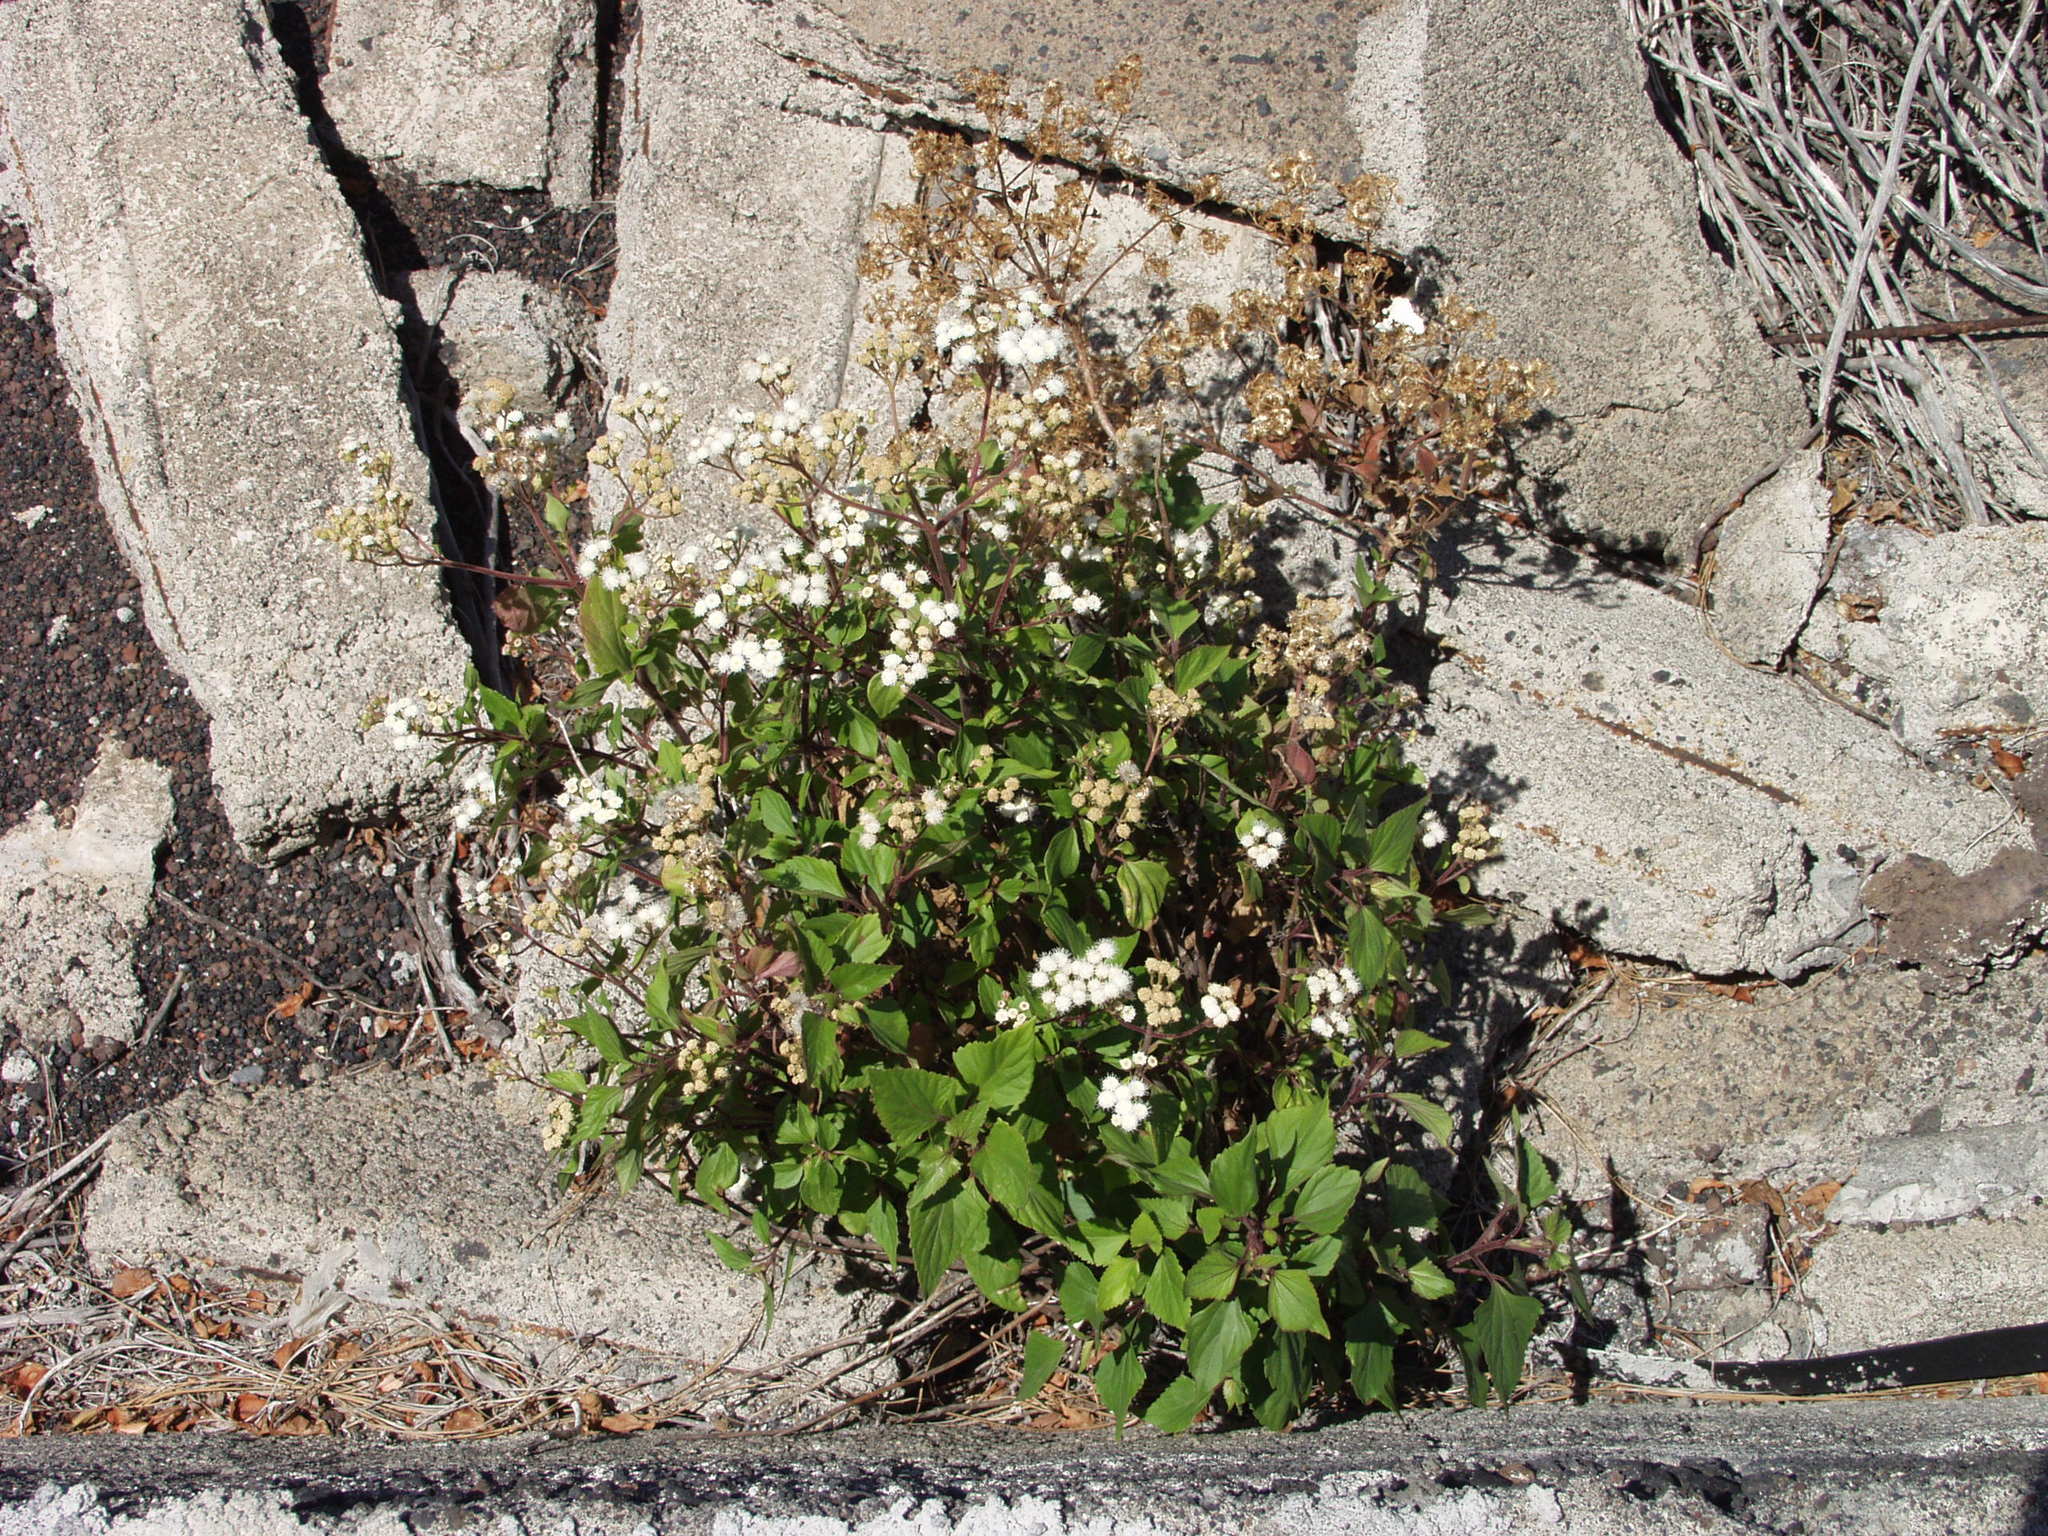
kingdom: Plantae
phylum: Tracheophyta
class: Magnoliopsida
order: Asterales
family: Asteraceae
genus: Ageratina
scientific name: Ageratina adenophora
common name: Sticky snakeroot
